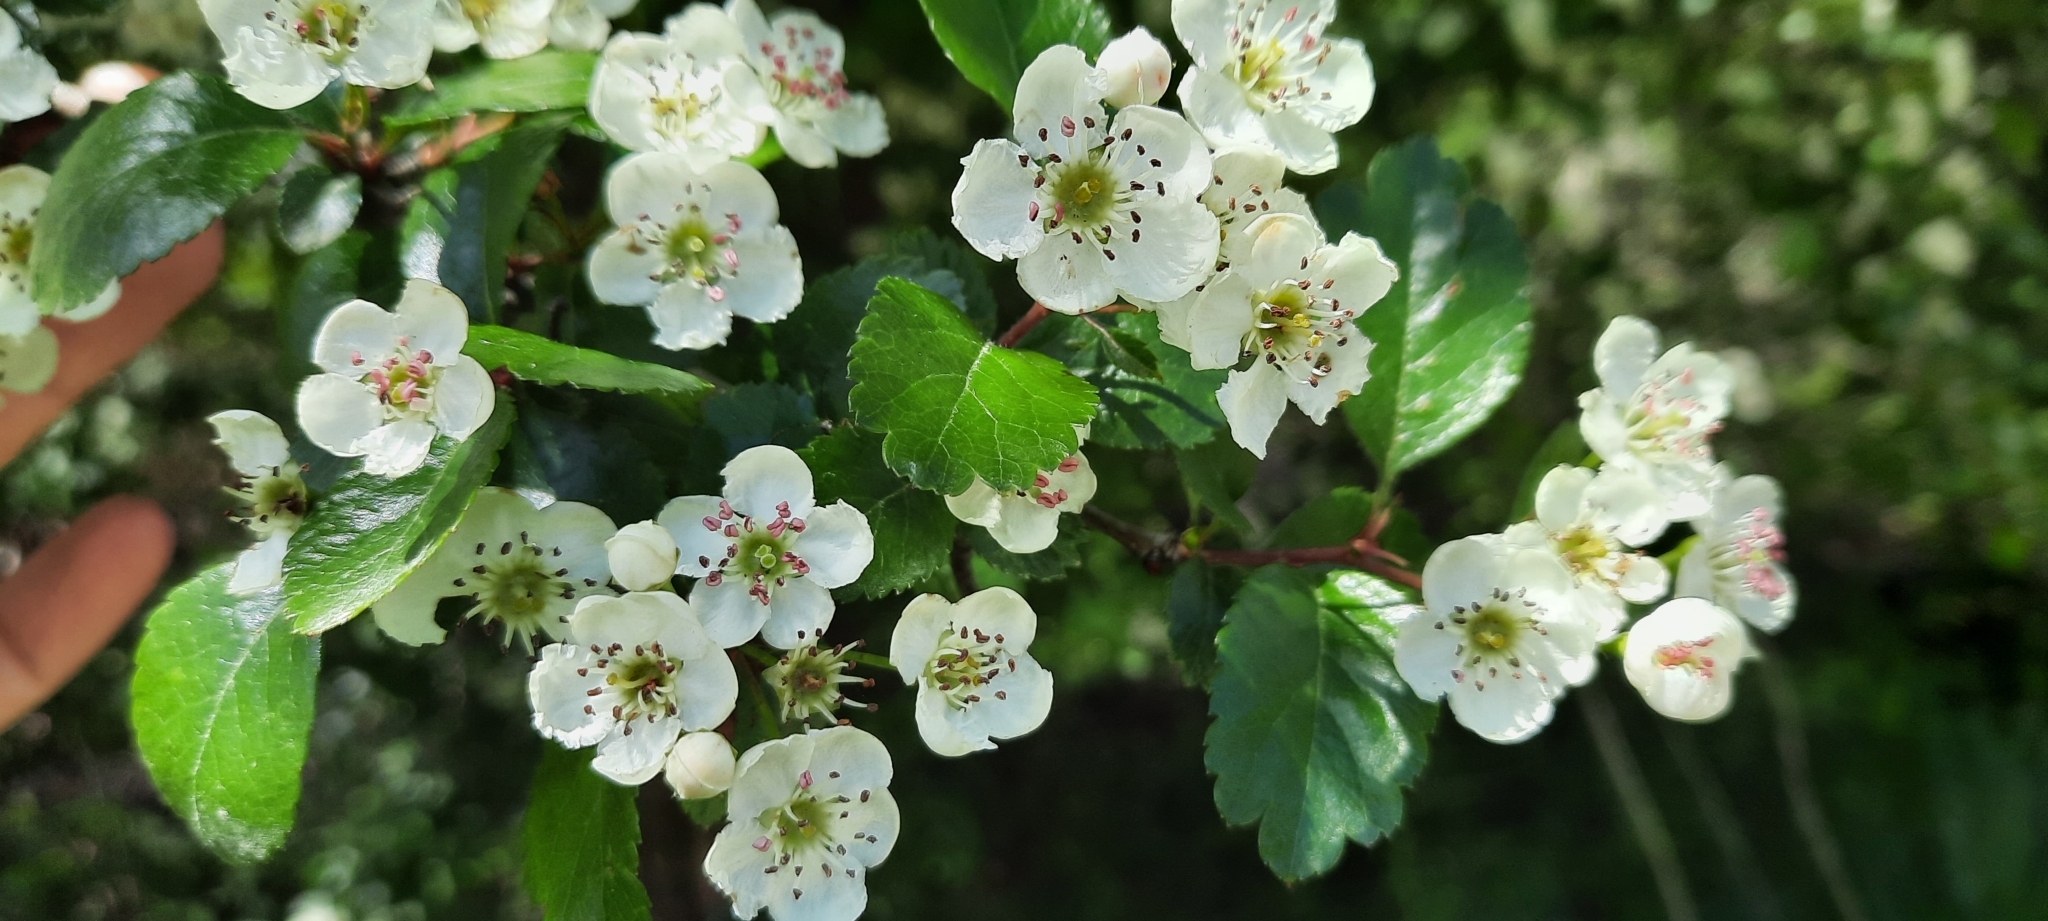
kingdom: Plantae
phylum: Tracheophyta
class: Magnoliopsida
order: Rosales
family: Rosaceae
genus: Crataegus
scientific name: Crataegus laevigata
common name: Midland hawthorn
